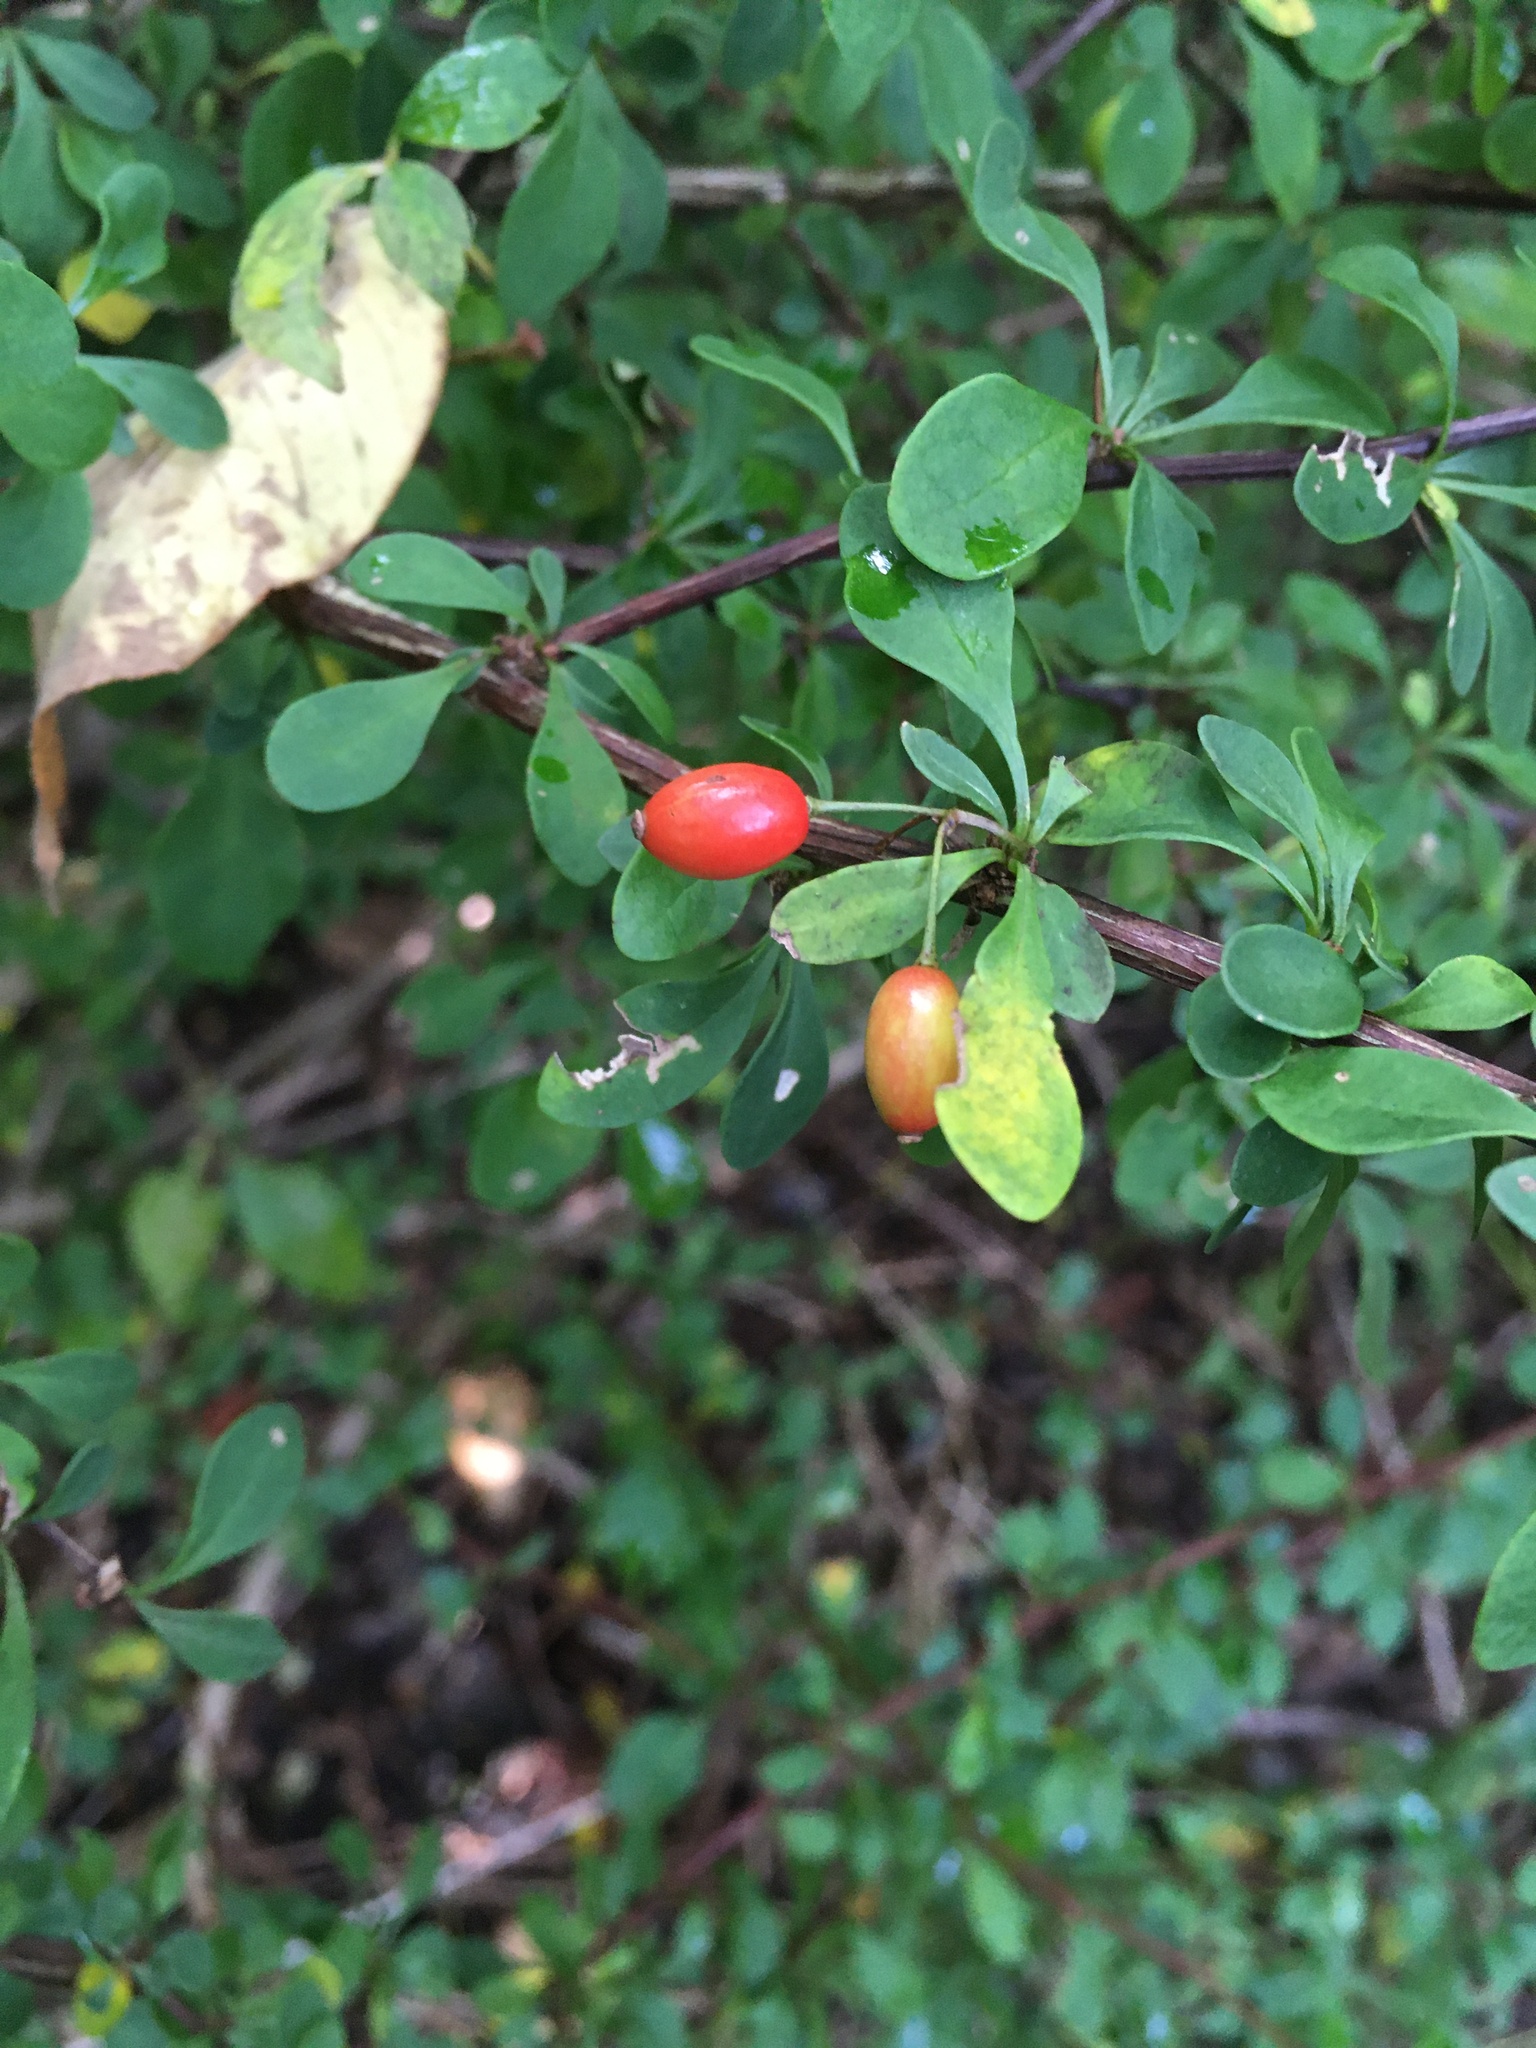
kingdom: Plantae
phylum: Tracheophyta
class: Magnoliopsida
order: Ranunculales
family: Berberidaceae
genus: Berberis
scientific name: Berberis thunbergii
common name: Japanese barberry
